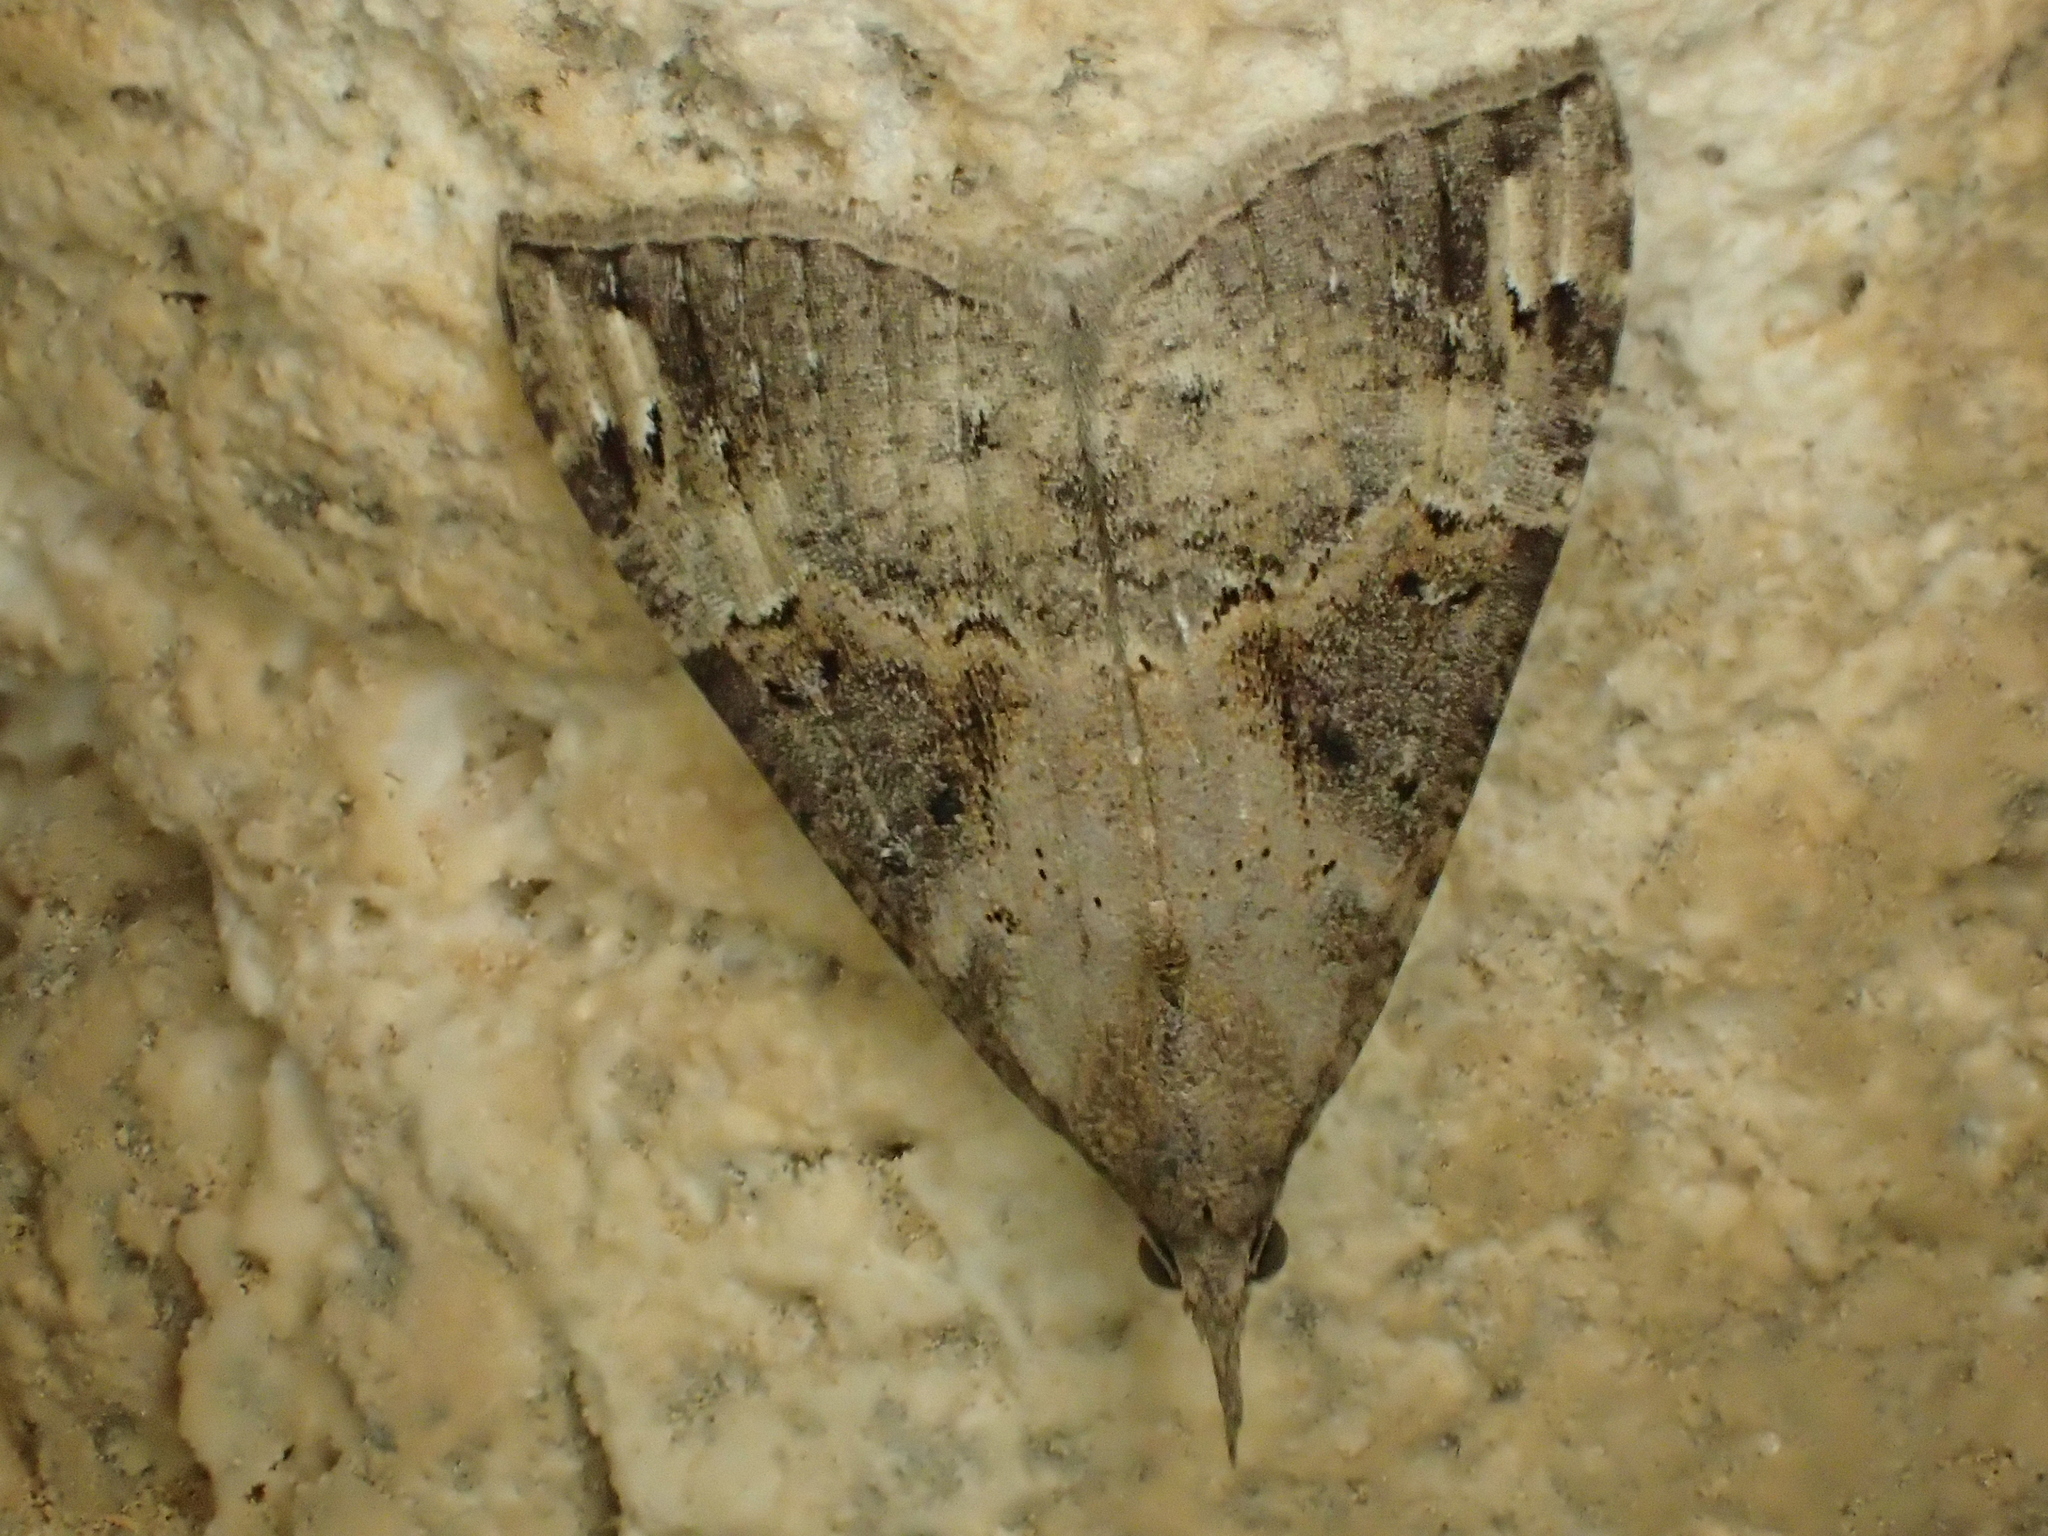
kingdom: Animalia
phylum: Arthropoda
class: Insecta
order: Lepidoptera
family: Erebidae
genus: Hypena
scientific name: Hypena obsitalis
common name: Bloxworth snout
